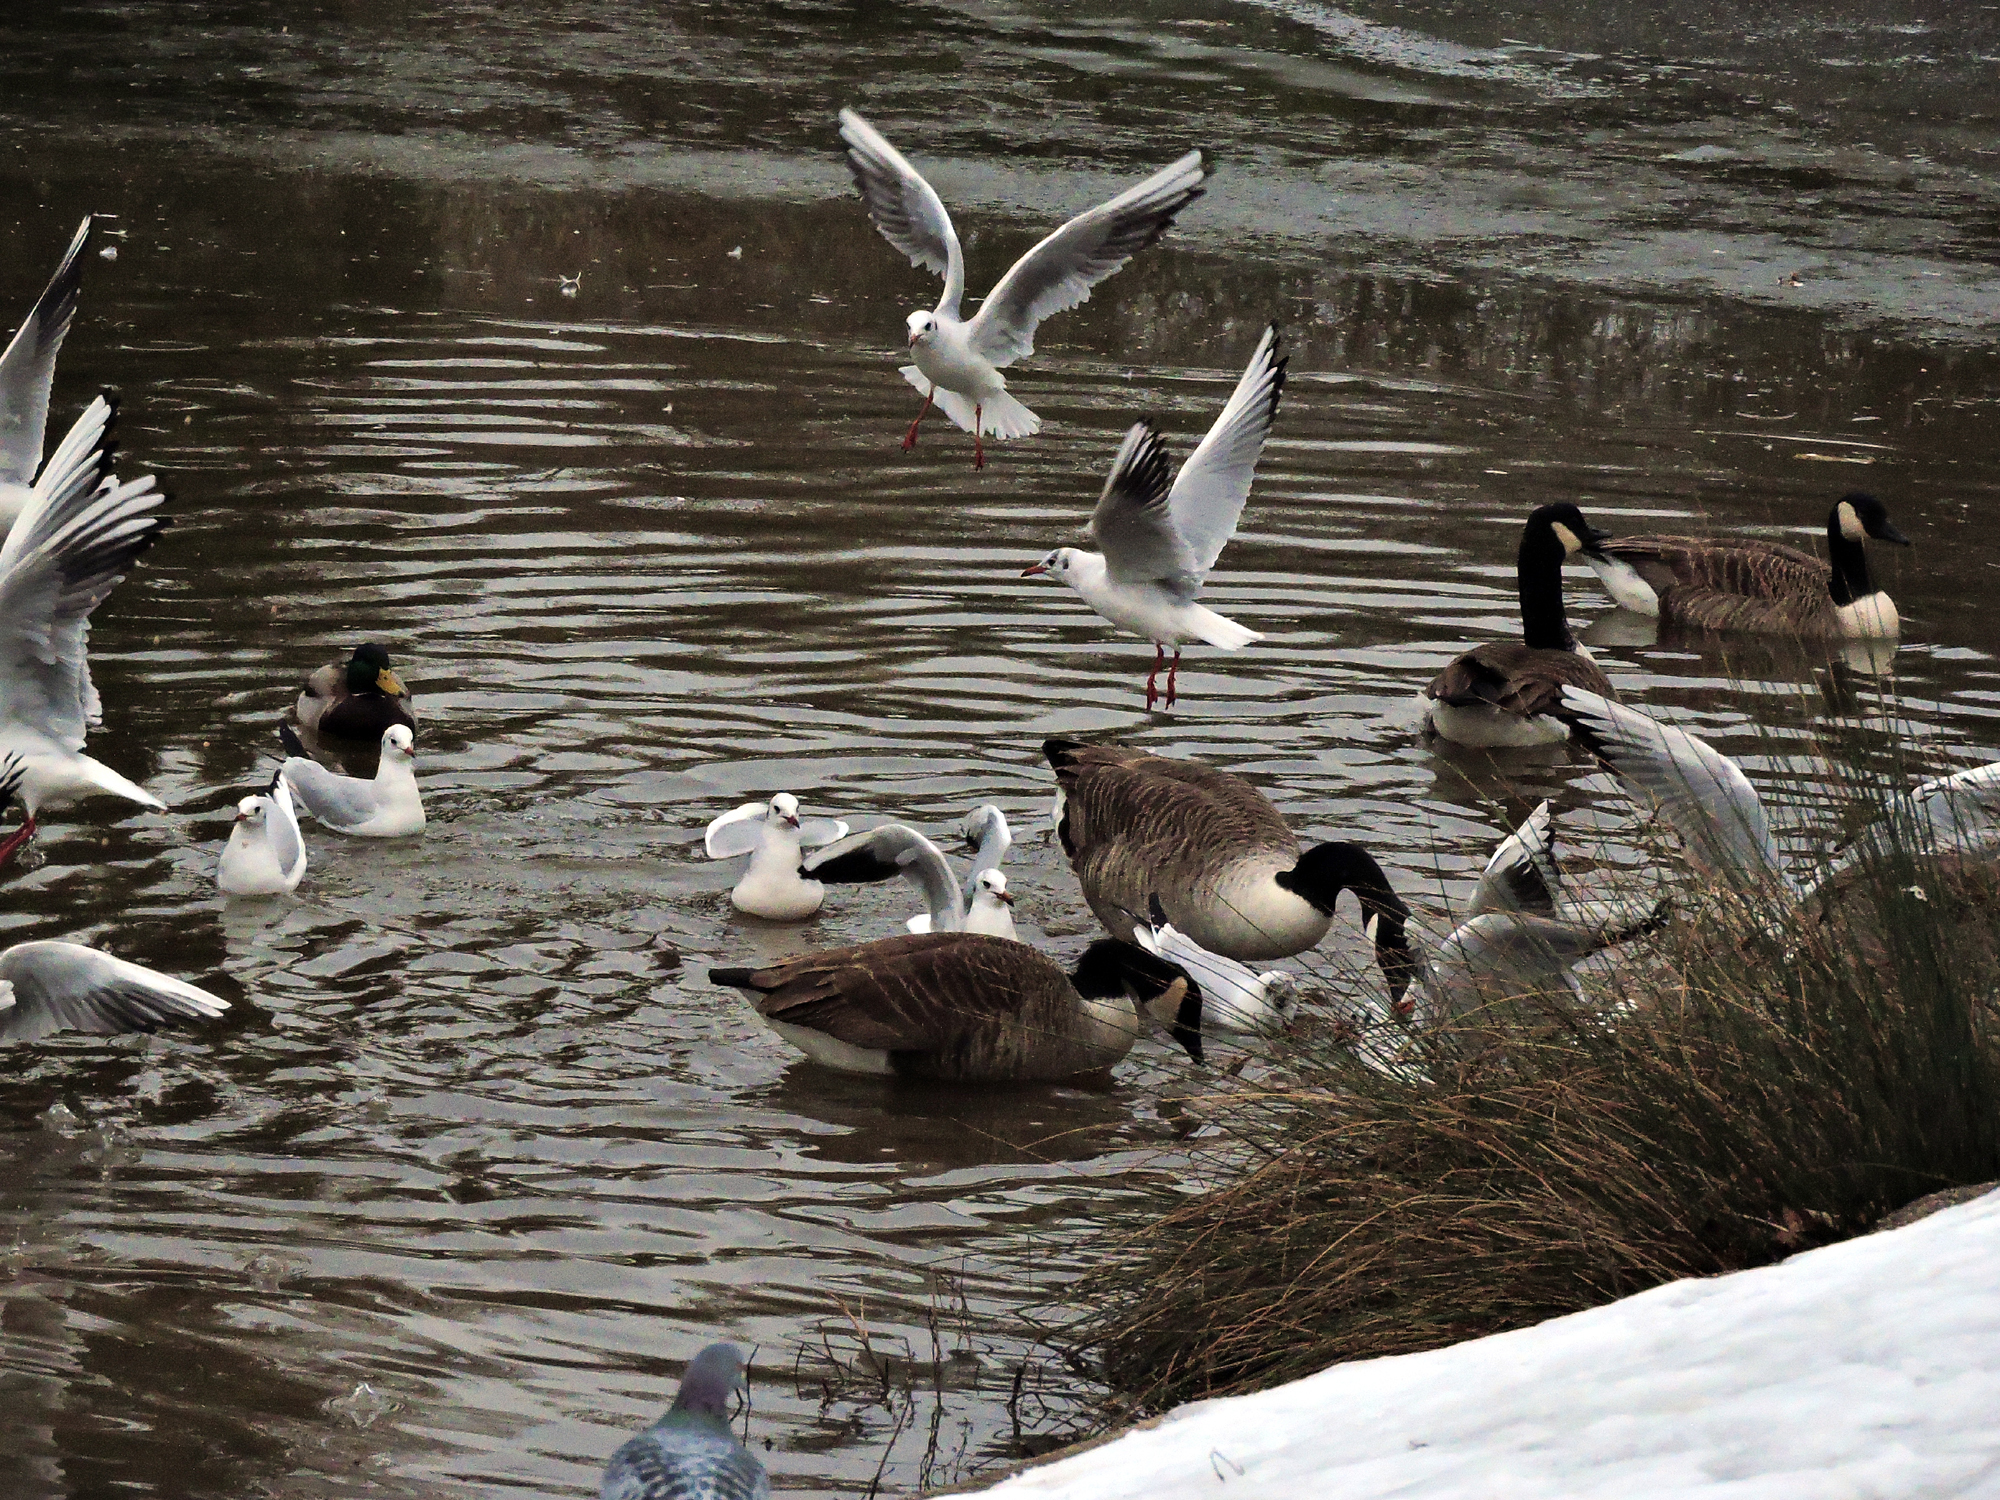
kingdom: Animalia
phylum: Chordata
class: Aves
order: Anseriformes
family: Anatidae
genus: Branta
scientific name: Branta canadensis
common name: Canada goose
